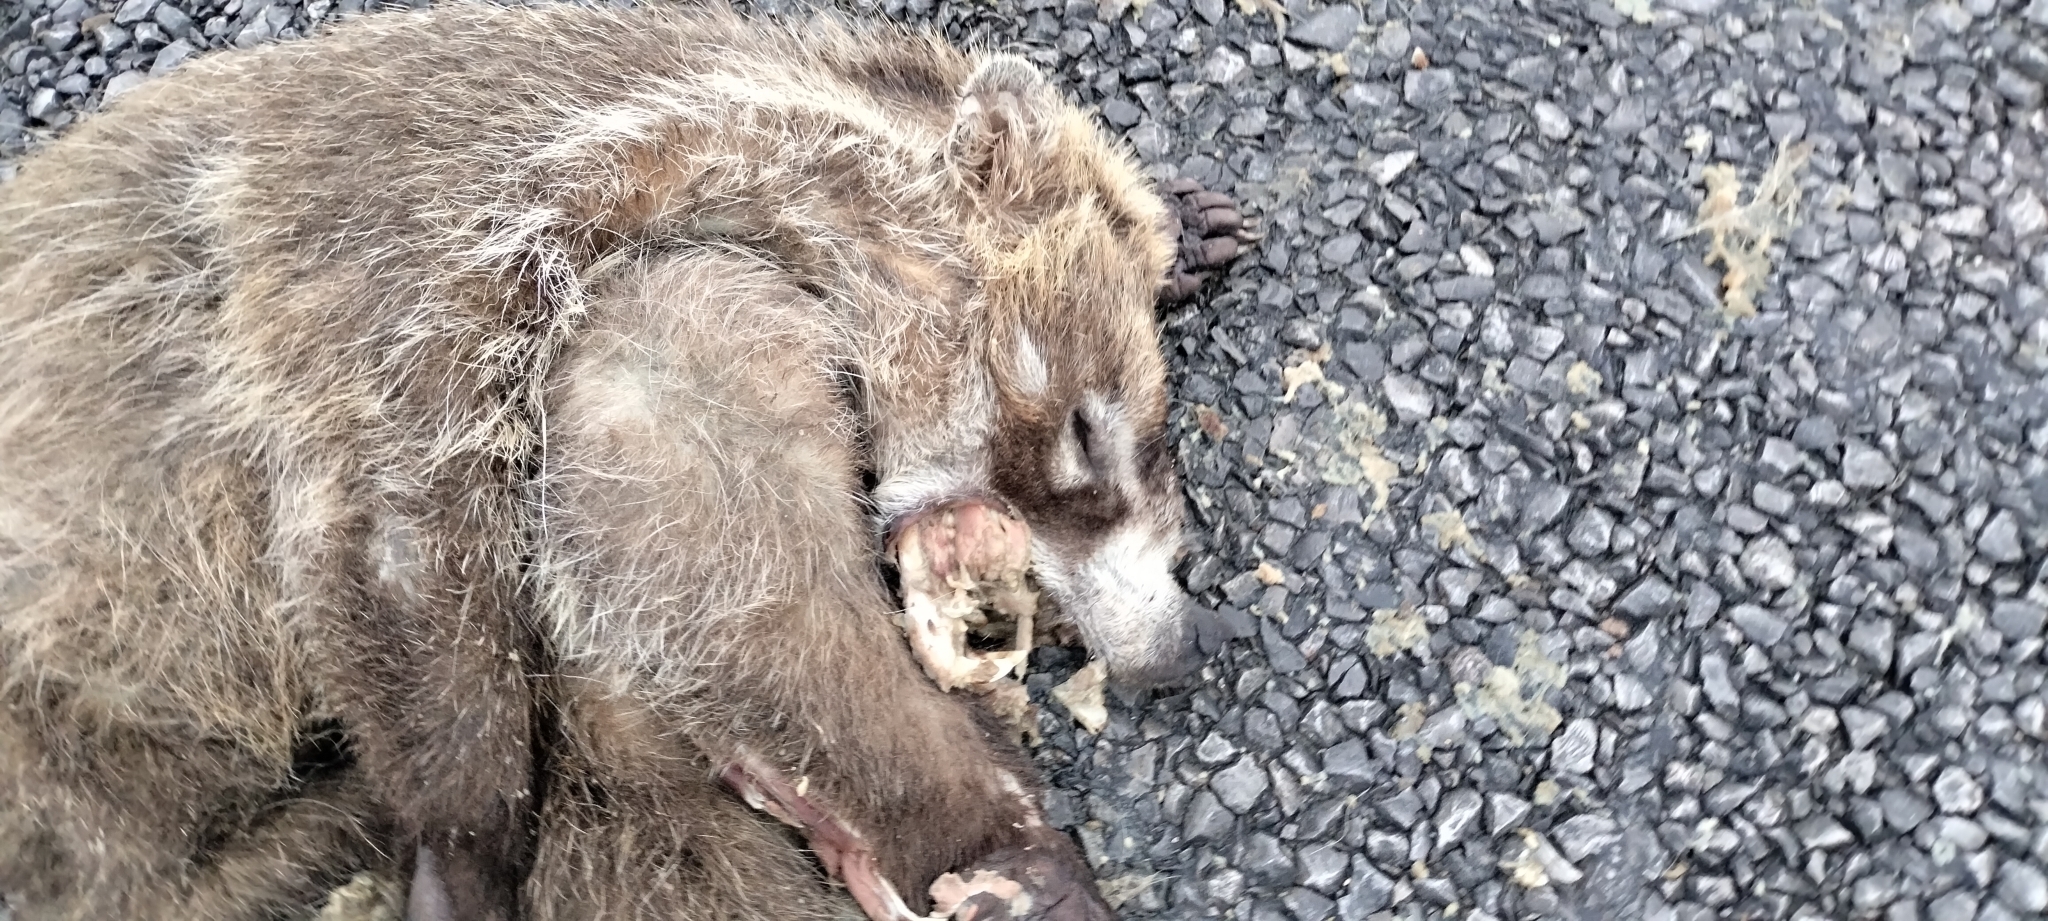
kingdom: Animalia
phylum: Chordata
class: Mammalia
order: Carnivora
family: Procyonidae
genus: Nasua
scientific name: Nasua narica
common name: White-nosed coati
